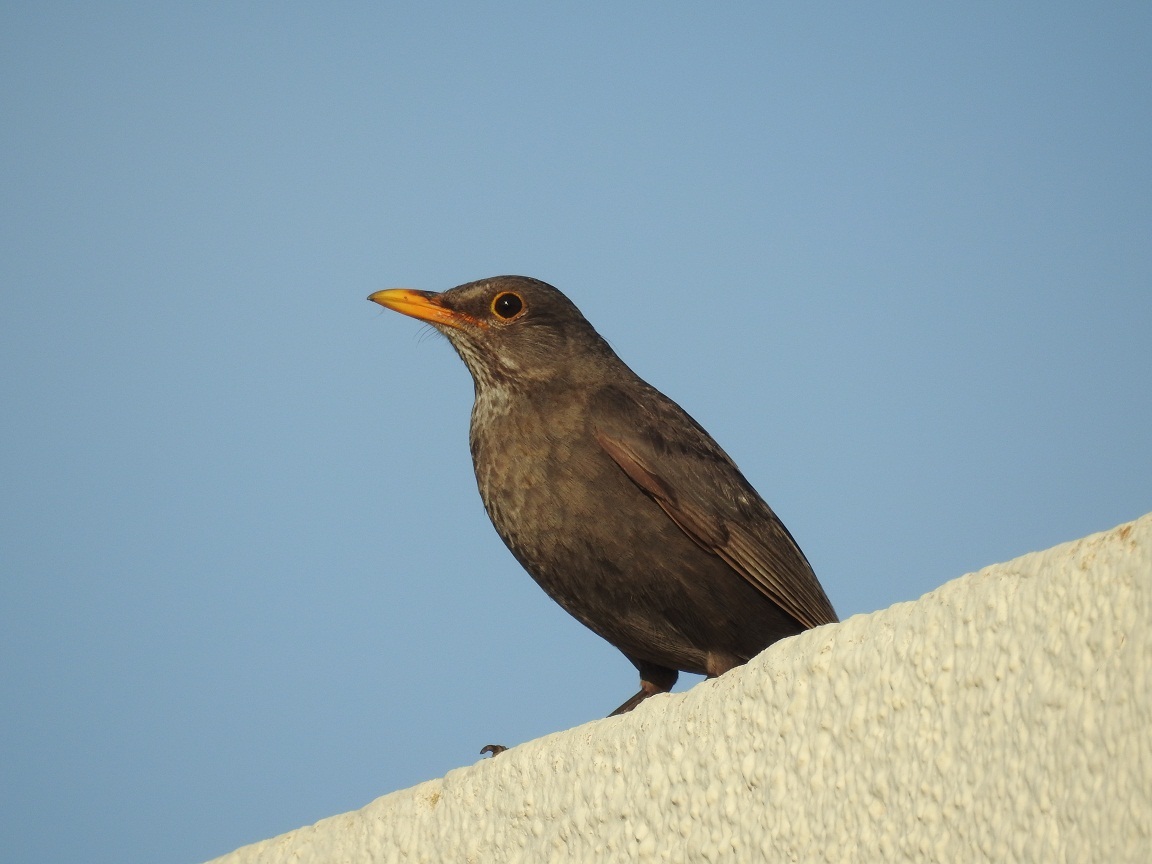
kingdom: Animalia
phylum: Chordata
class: Aves
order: Passeriformes
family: Turdidae
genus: Turdus
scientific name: Turdus merula
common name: Common blackbird
